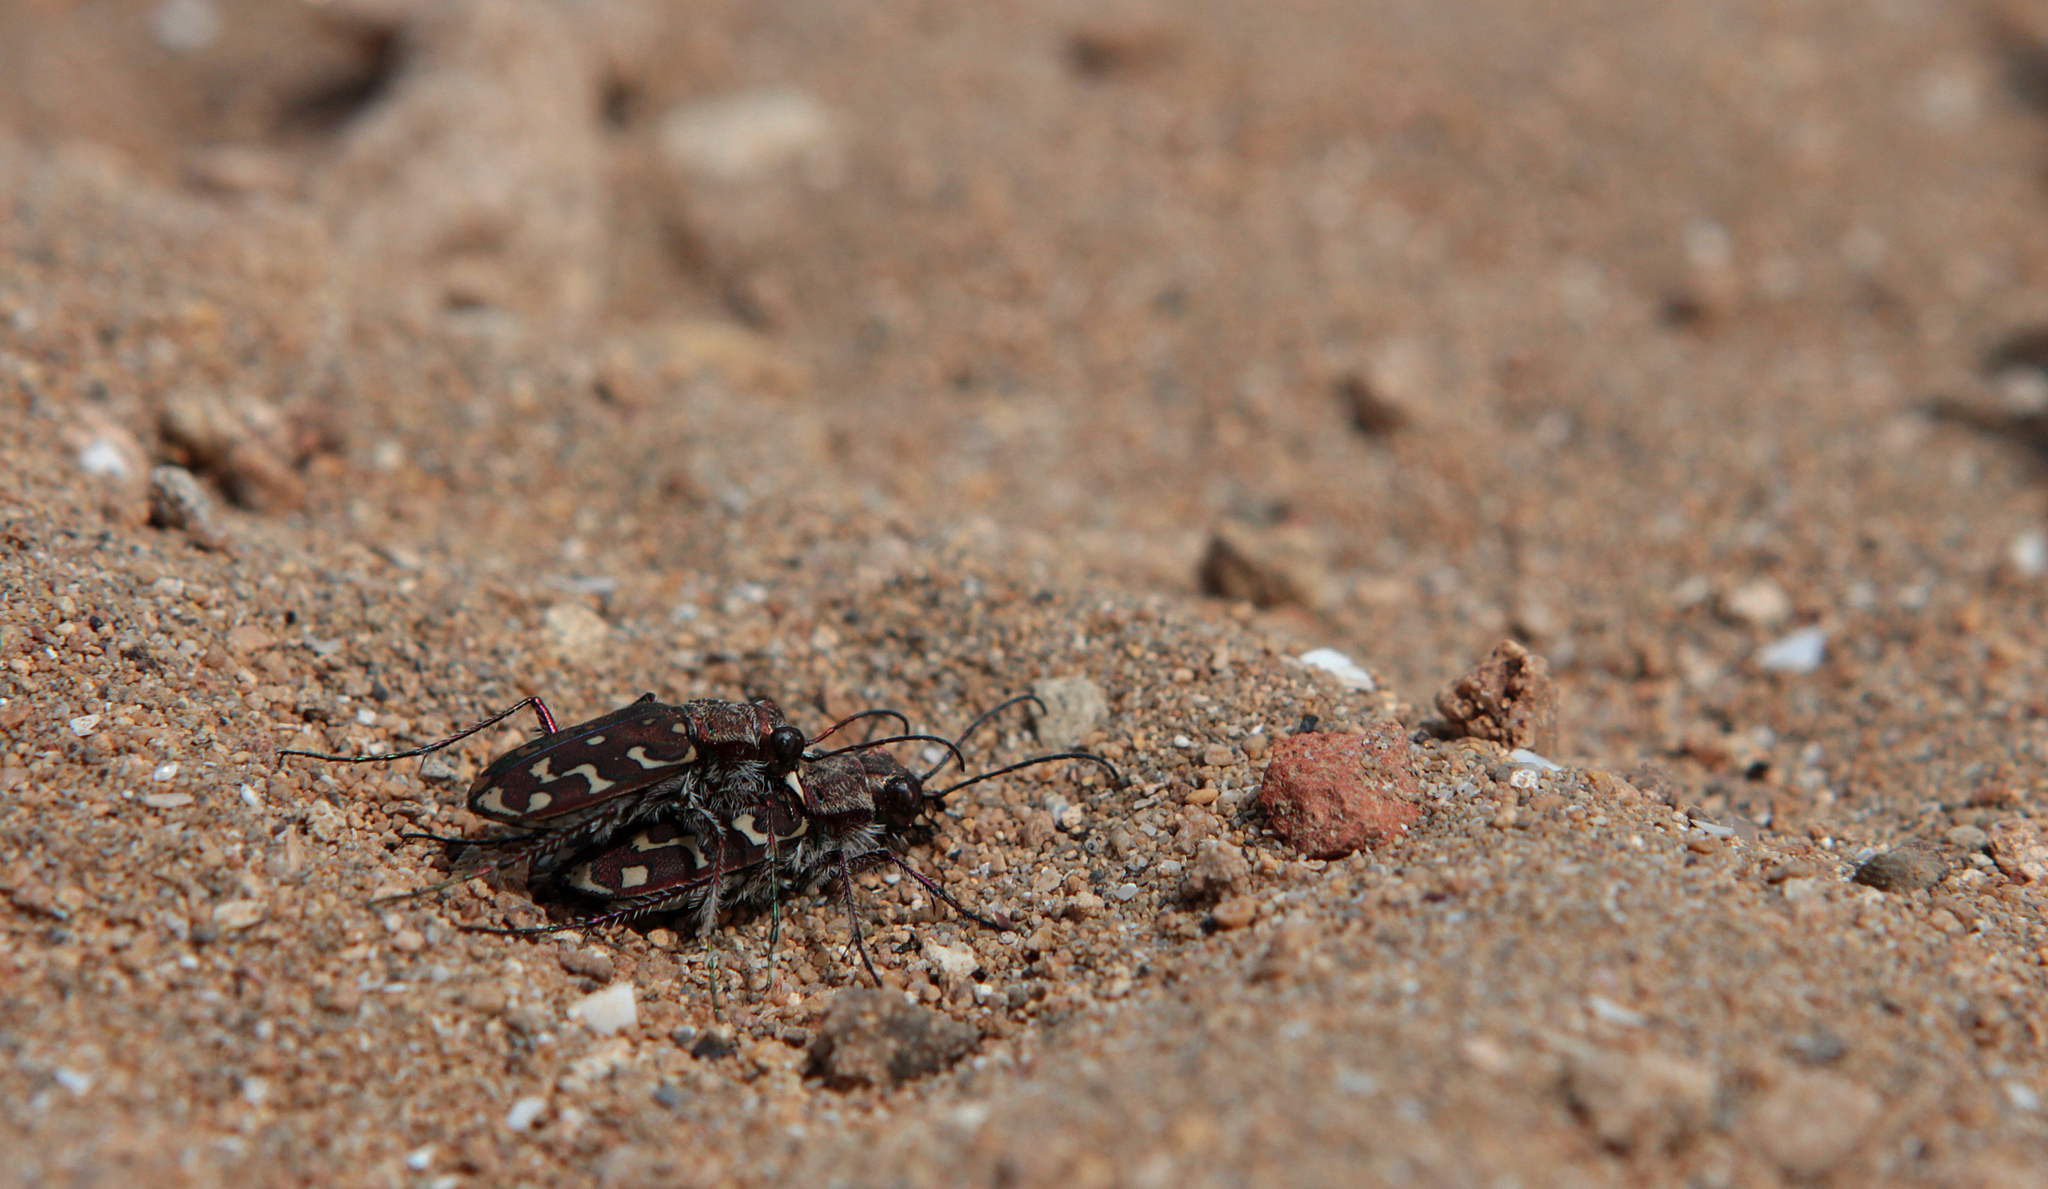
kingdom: Animalia
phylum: Arthropoda
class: Insecta
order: Coleoptera
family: Carabidae
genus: Lophyra
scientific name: Lophyra flexuosa
